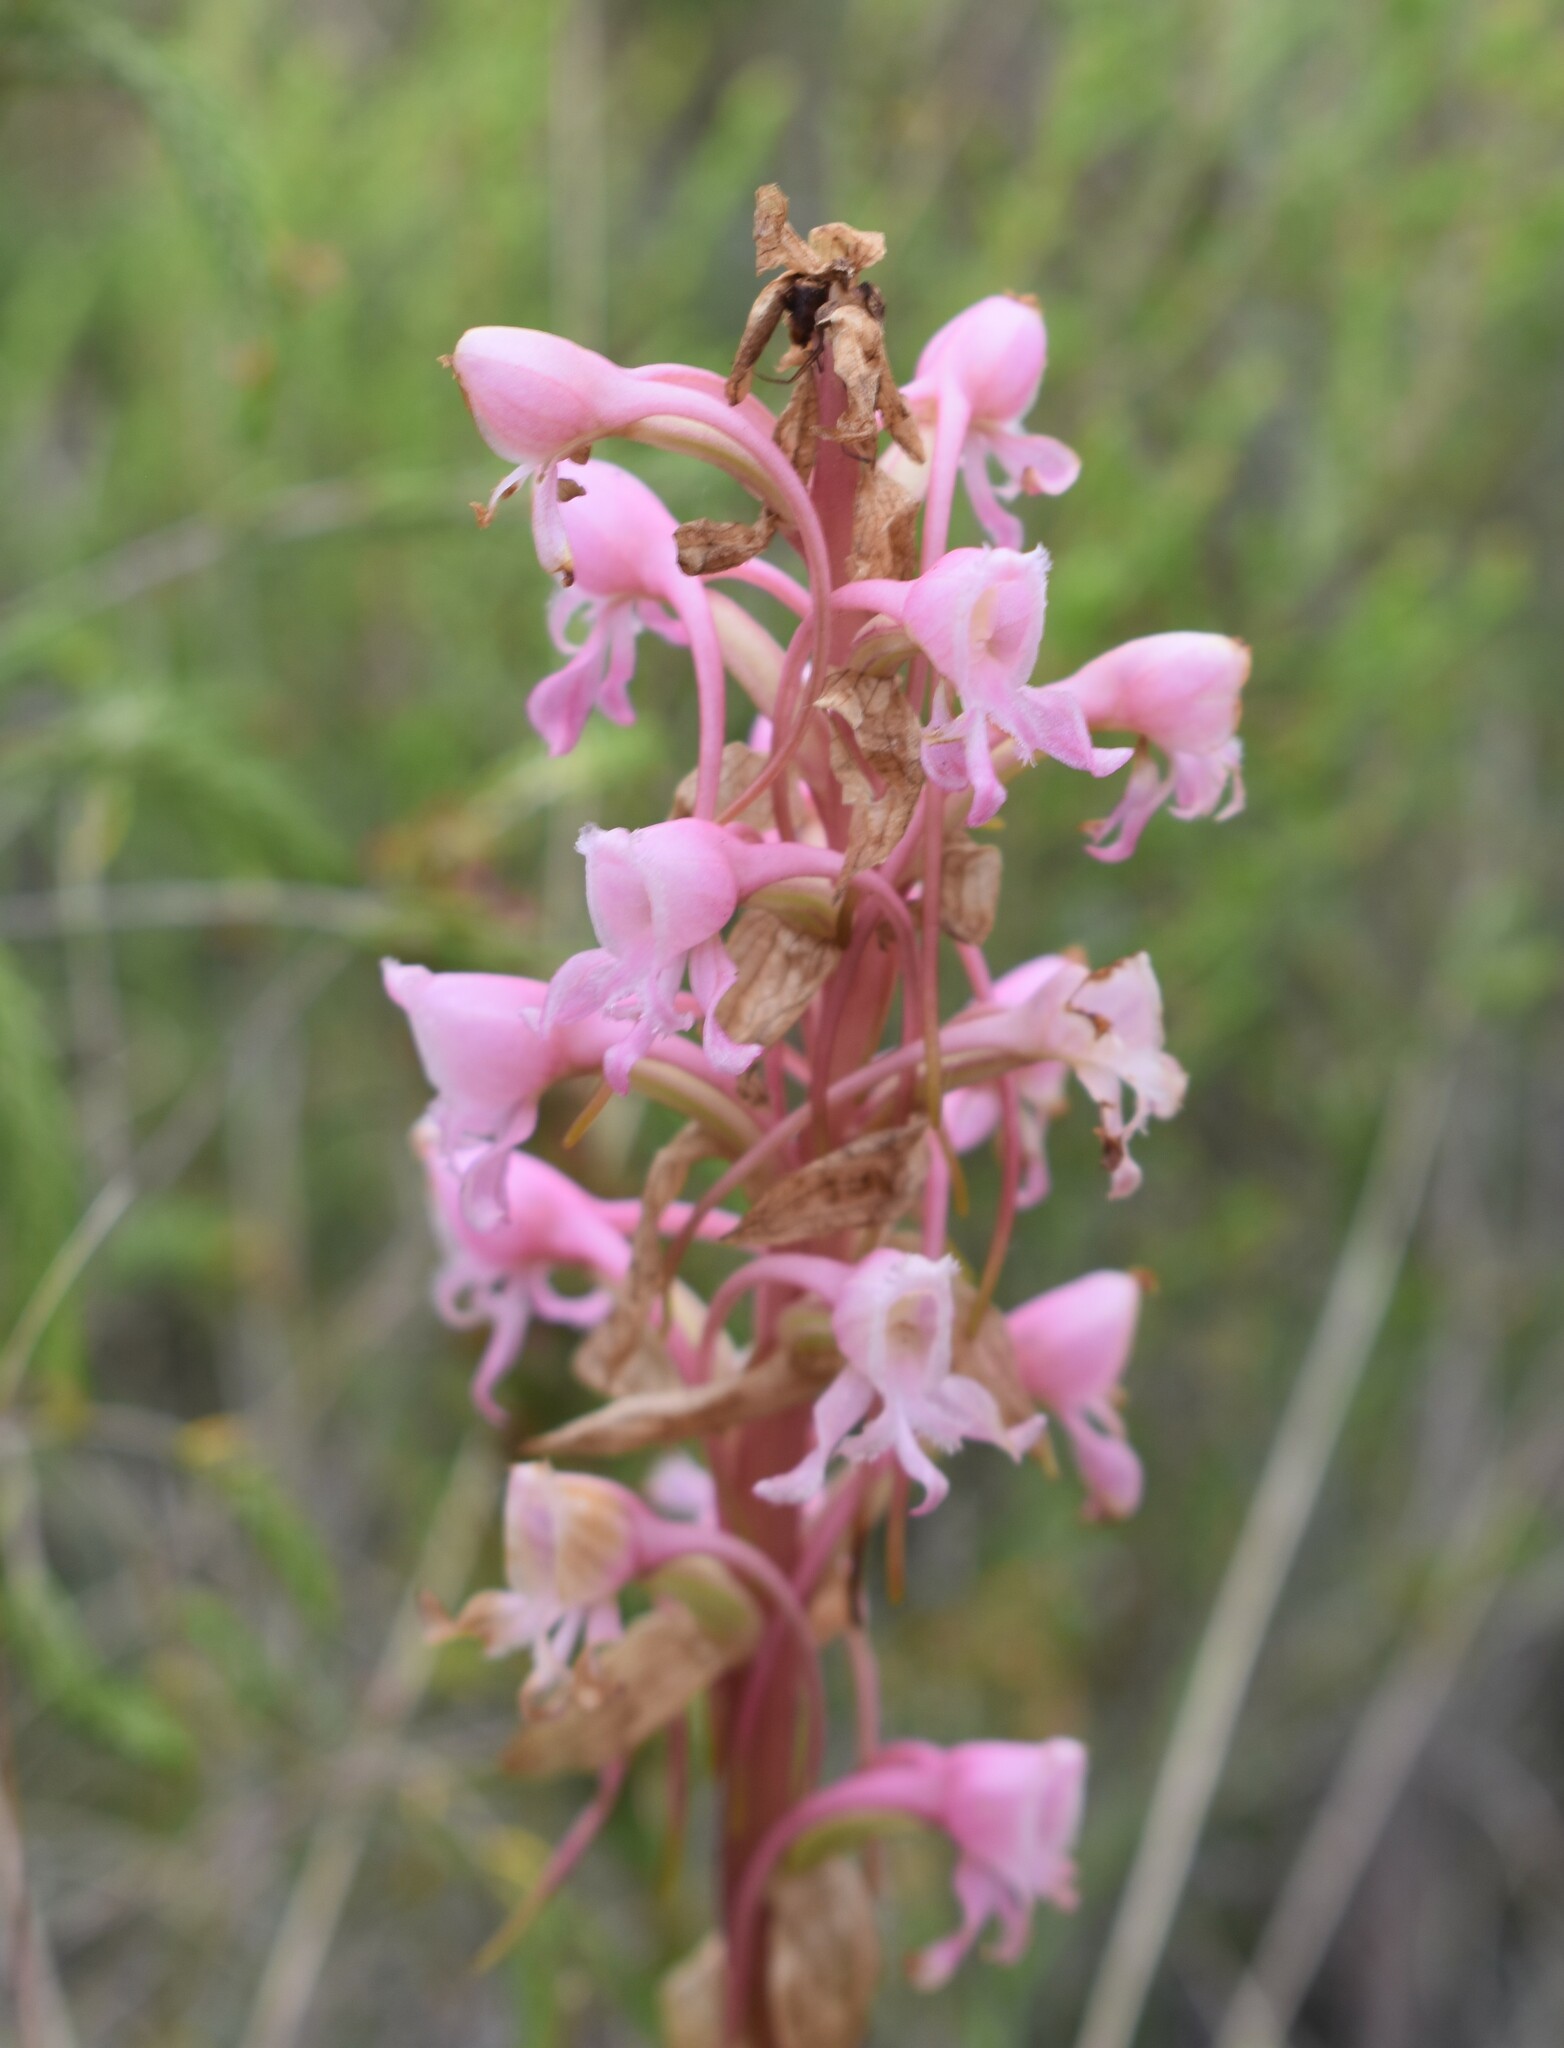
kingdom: Plantae
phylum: Tracheophyta
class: Liliopsida
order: Asparagales
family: Orchidaceae
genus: Satyrium
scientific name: Satyrium membranaceum
